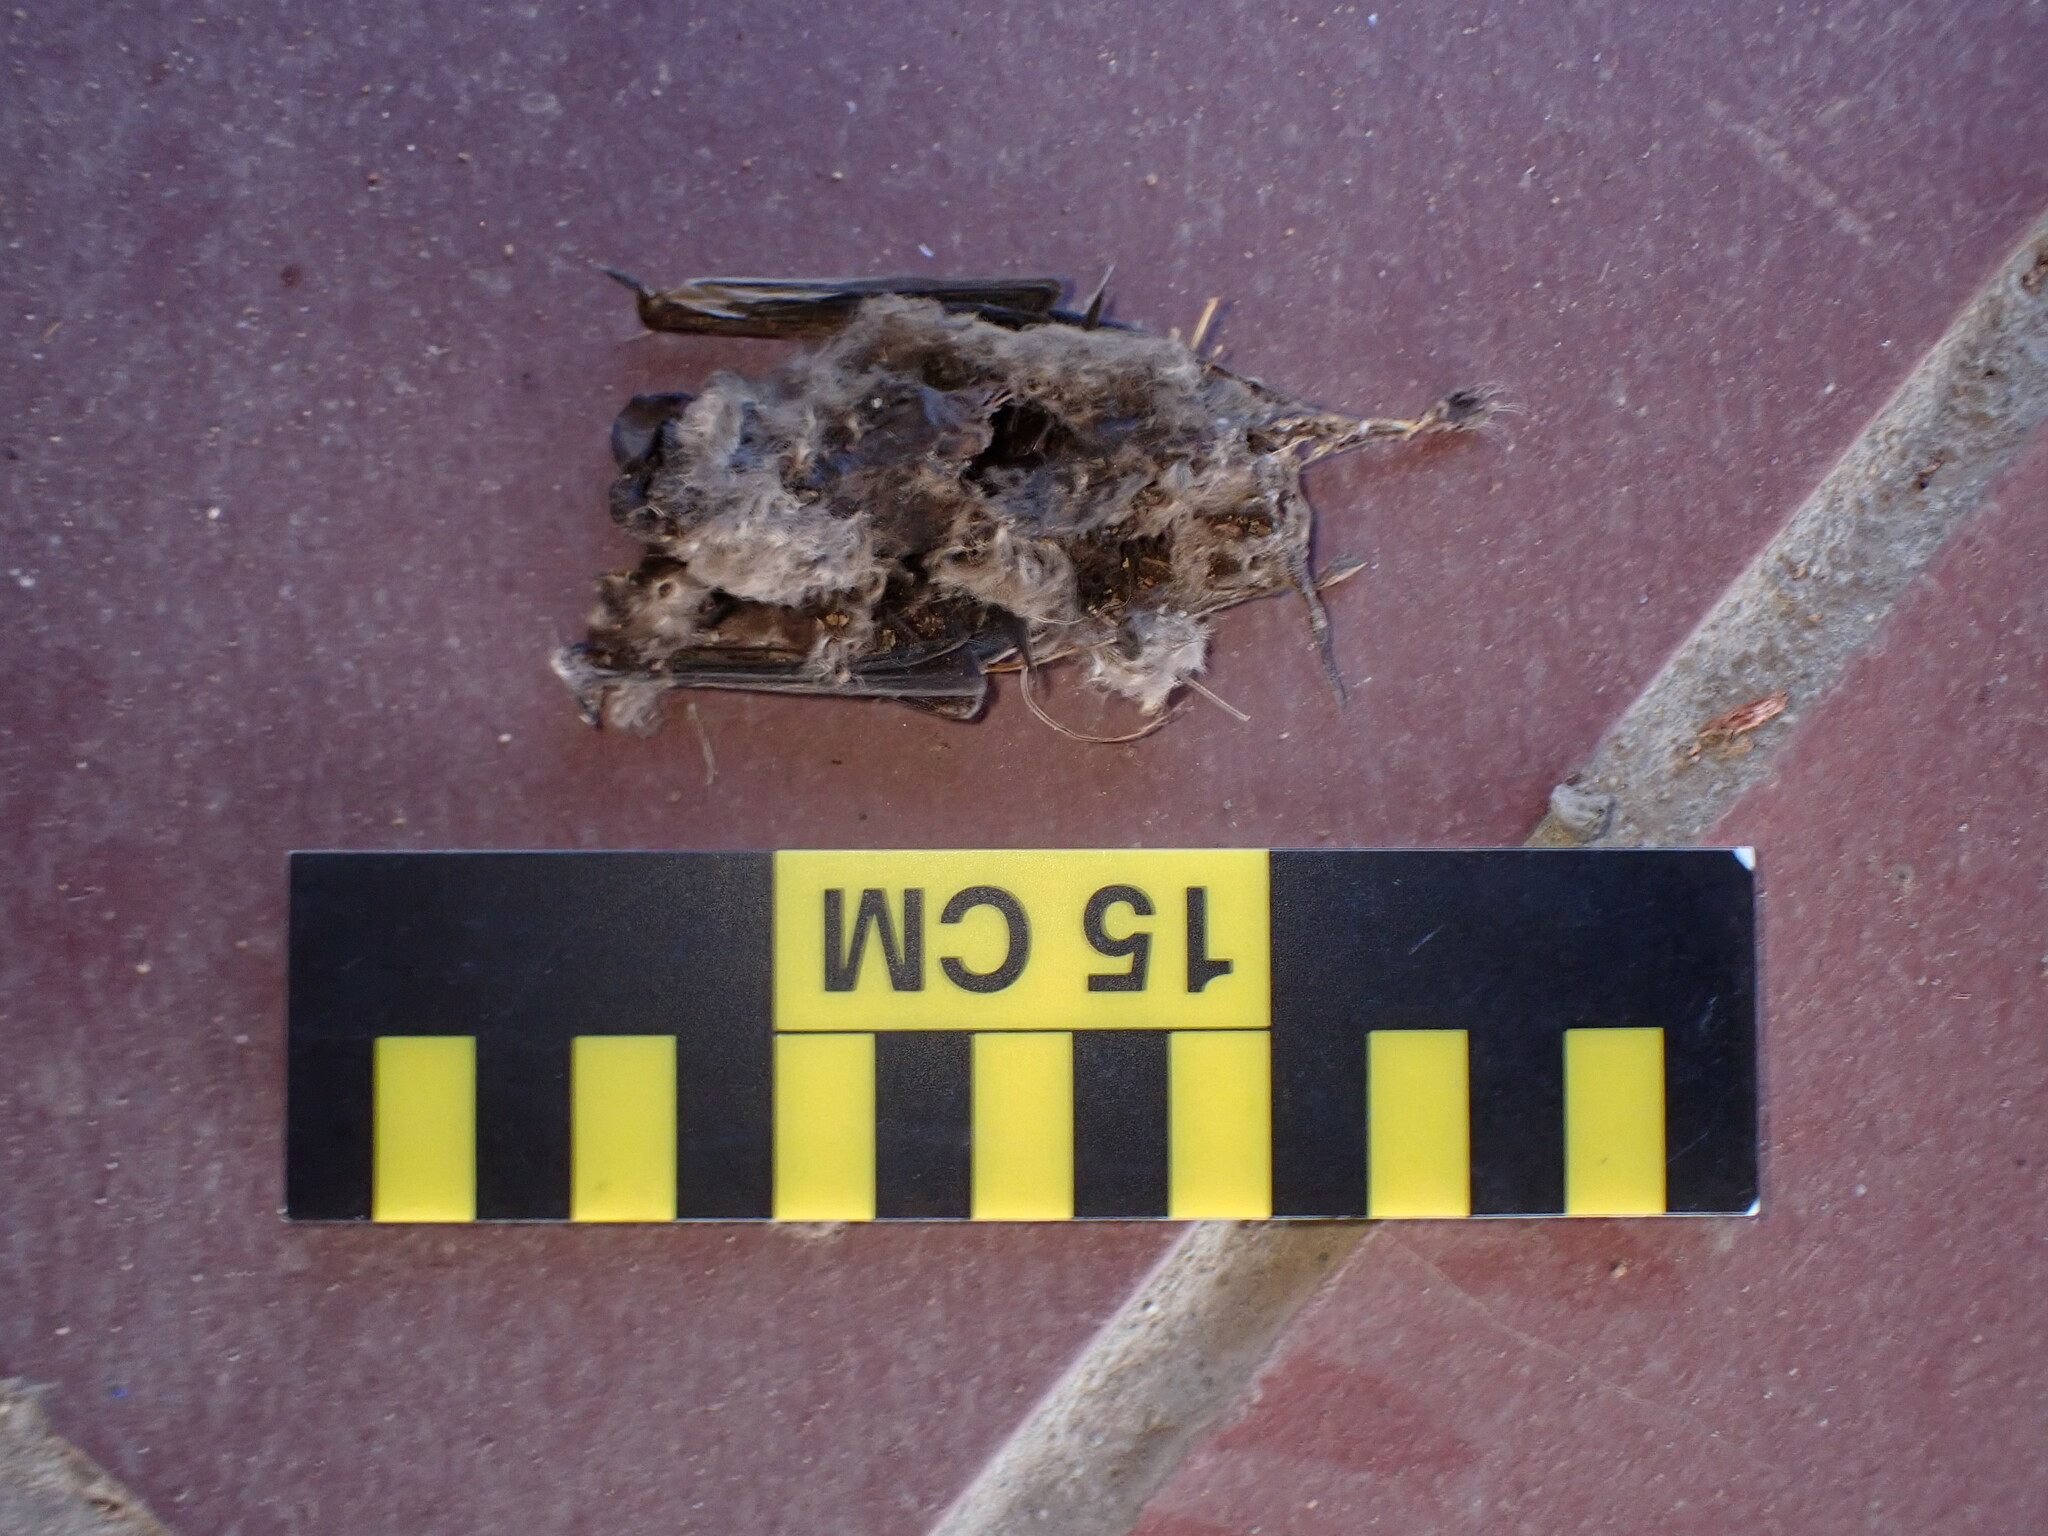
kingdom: Animalia
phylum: Chordata
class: Mammalia
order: Chiroptera
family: Molossidae
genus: Tadarida
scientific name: Tadarida brasiliensis
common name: Mexican free-tailed bat
